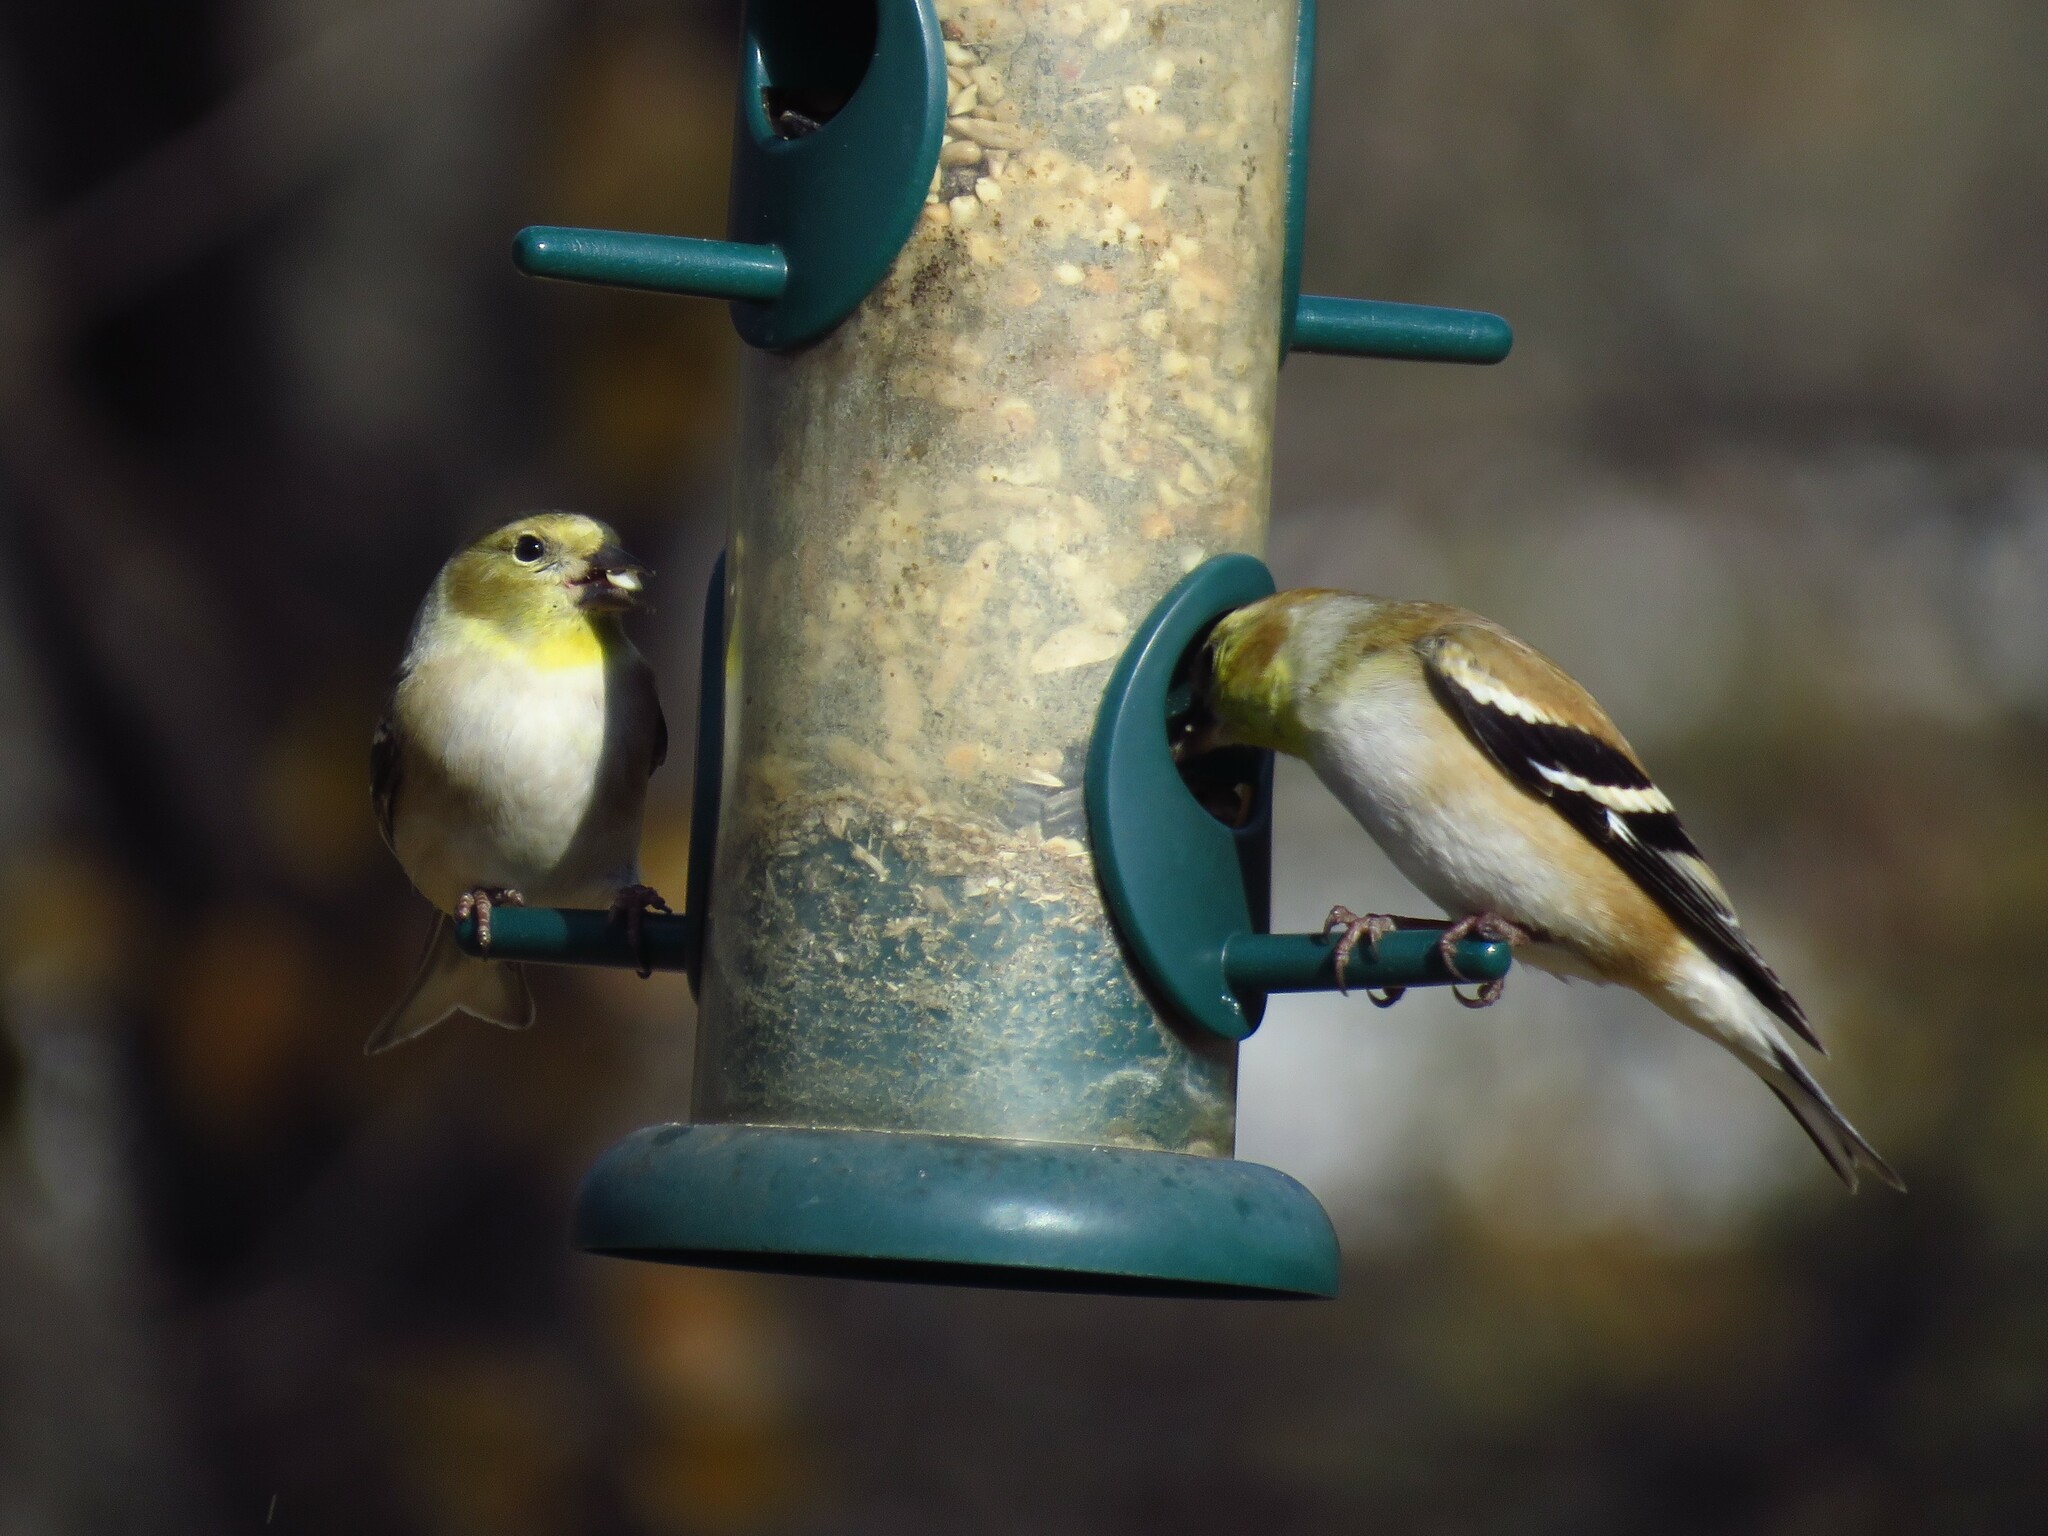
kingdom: Animalia
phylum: Chordata
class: Aves
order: Passeriformes
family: Fringillidae
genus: Spinus
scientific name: Spinus tristis
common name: American goldfinch
